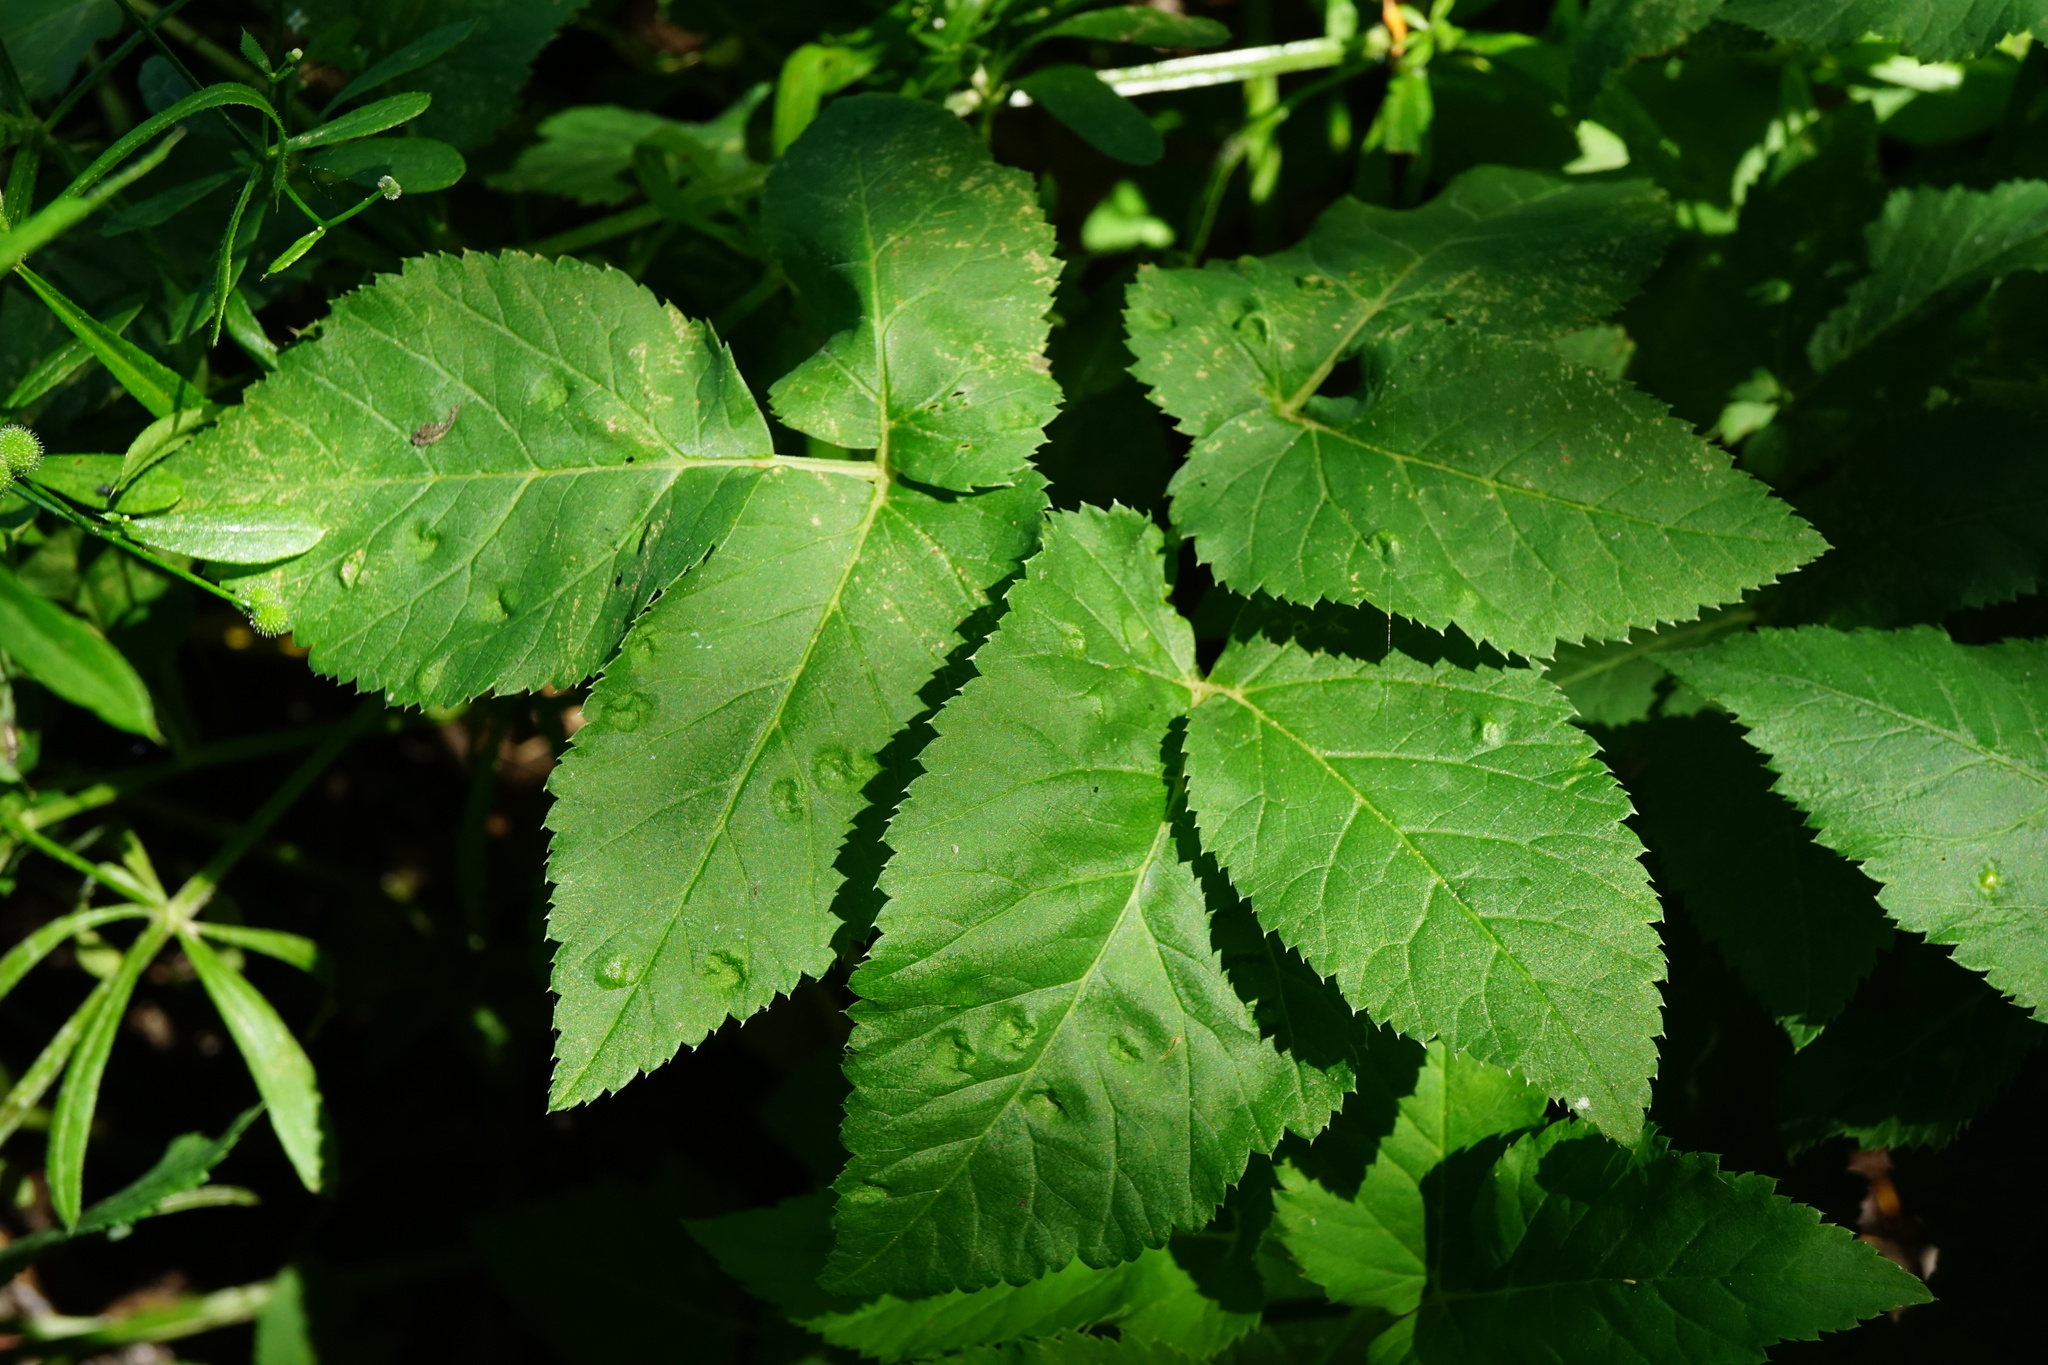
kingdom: Animalia
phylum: Arthropoda
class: Insecta
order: Hemiptera
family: Triozidae
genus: Trioza
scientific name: Trioza flavipennis
